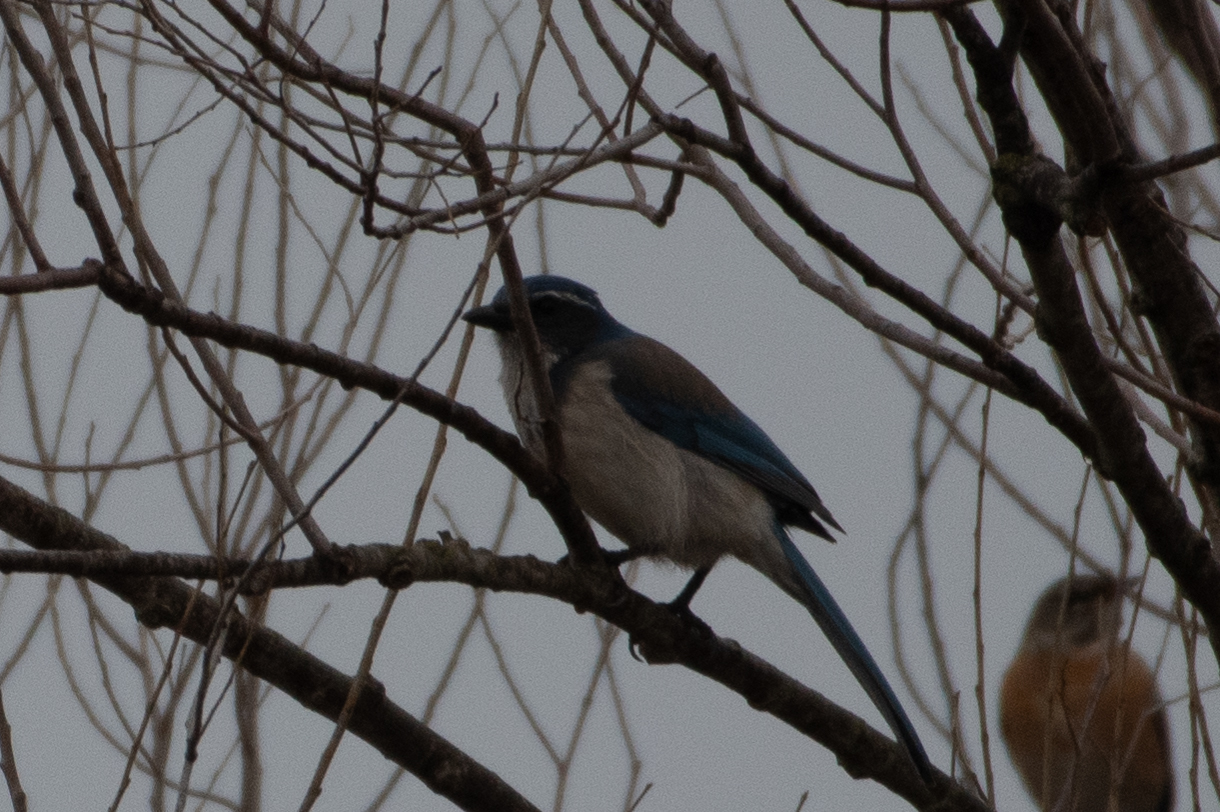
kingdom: Animalia
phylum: Chordata
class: Aves
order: Passeriformes
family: Corvidae
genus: Aphelocoma
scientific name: Aphelocoma californica
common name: California scrub-jay
